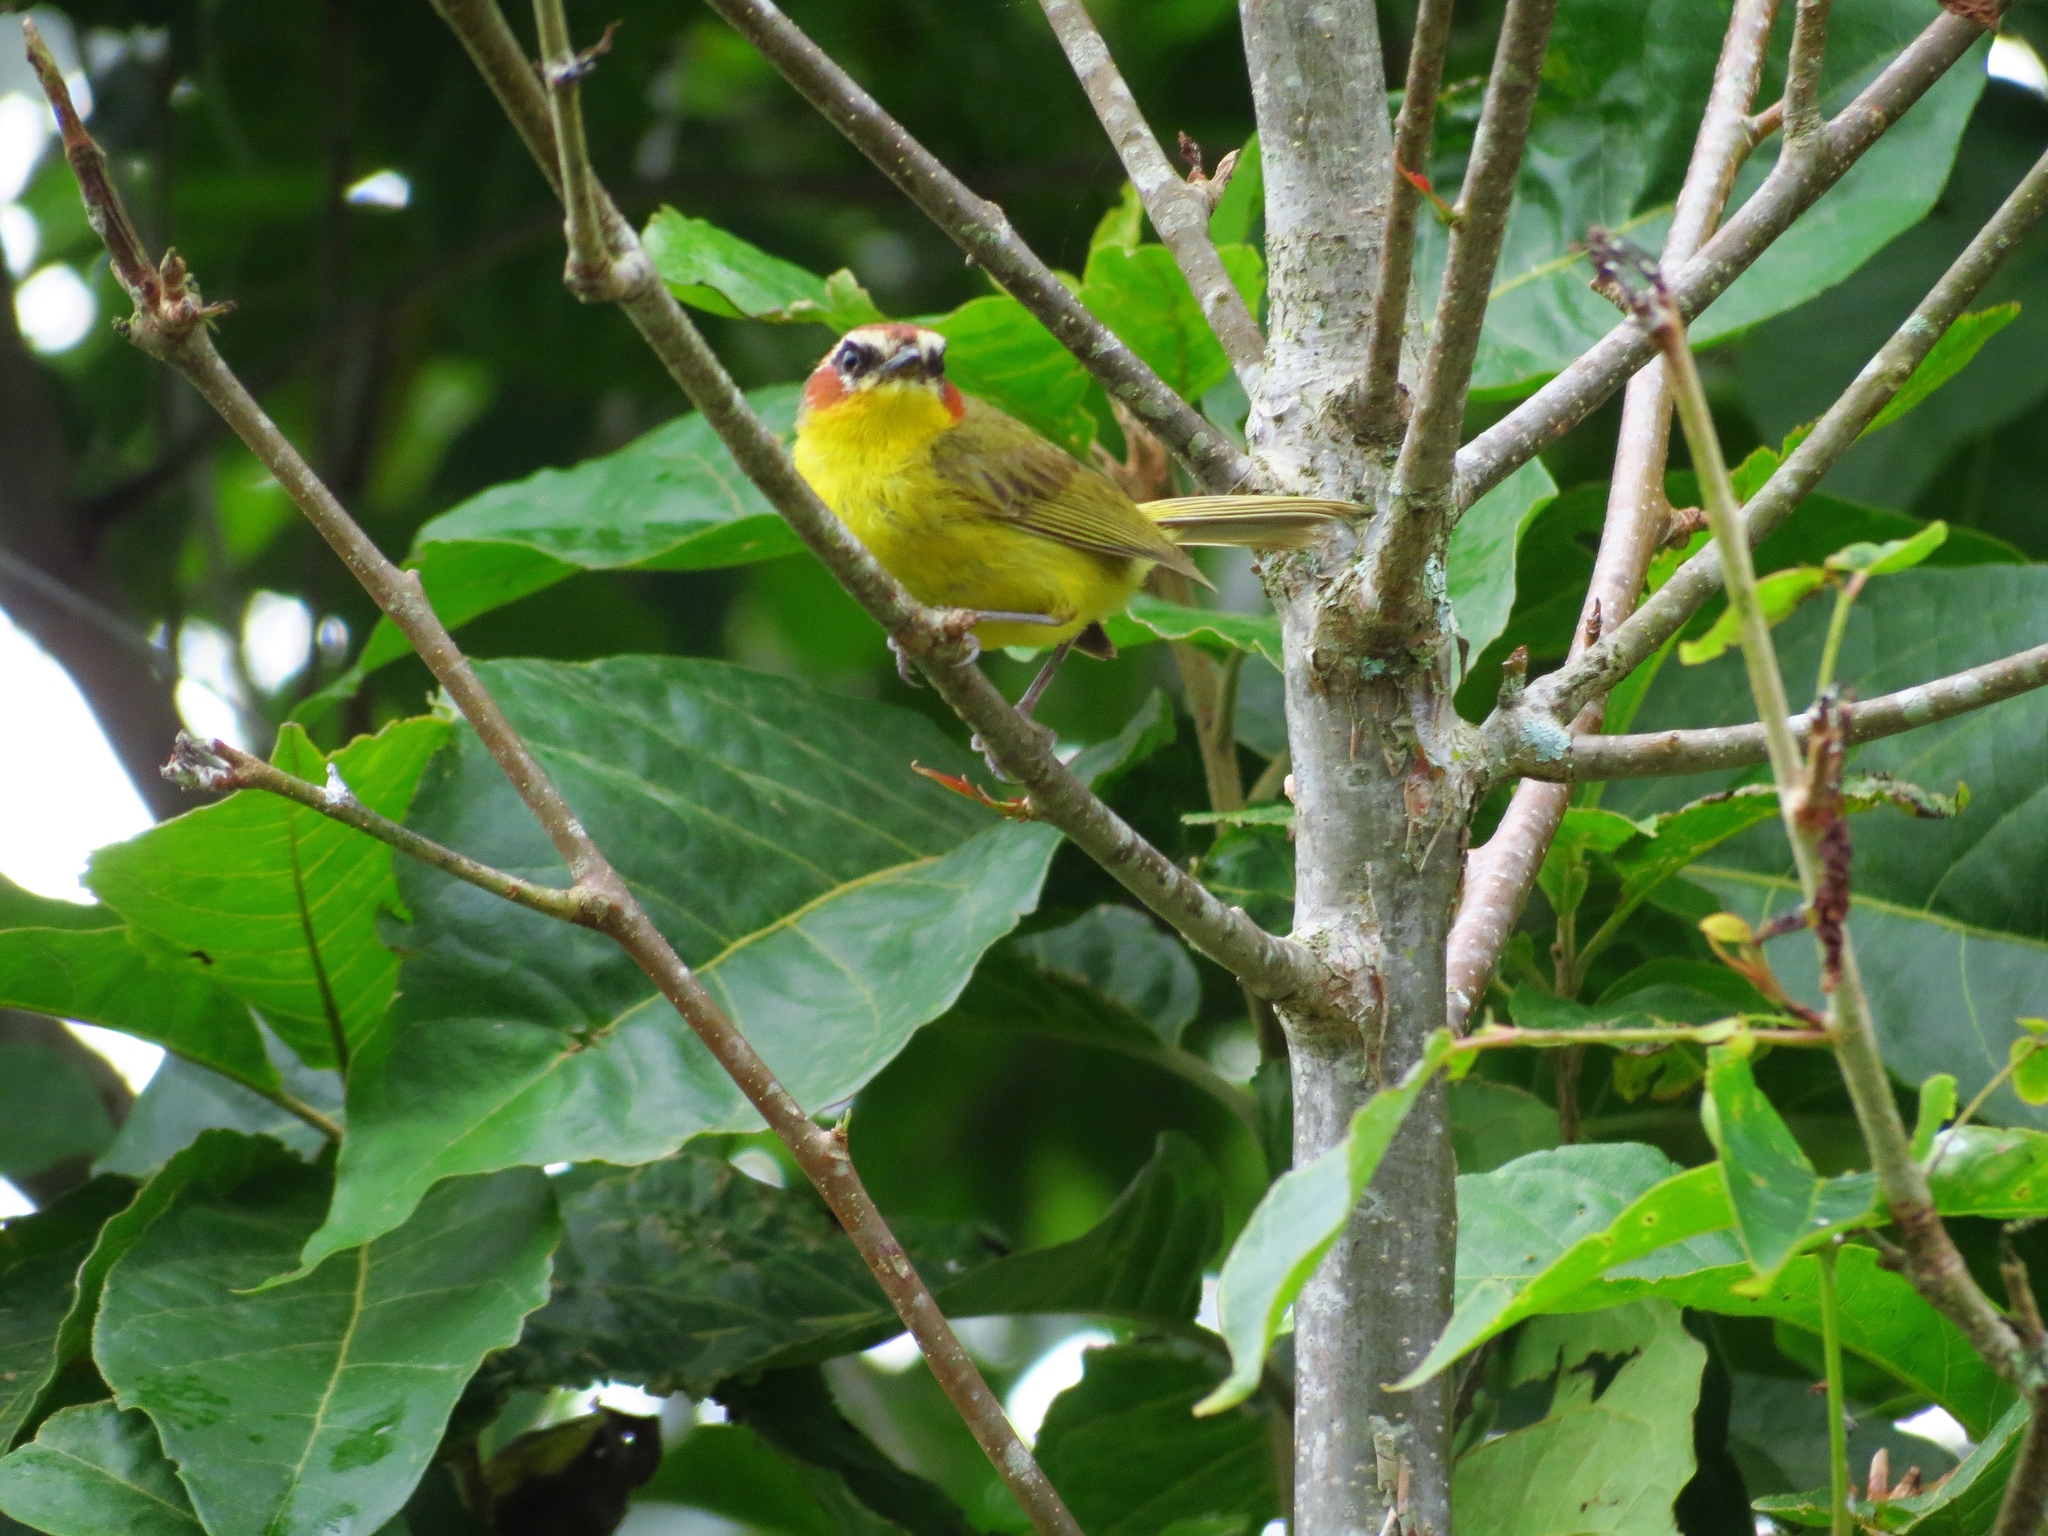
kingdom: Animalia
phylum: Chordata
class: Aves
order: Passeriformes
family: Parulidae
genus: Basileuterus
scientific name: Basileuterus rufifrons
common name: Rufous-capped warbler
